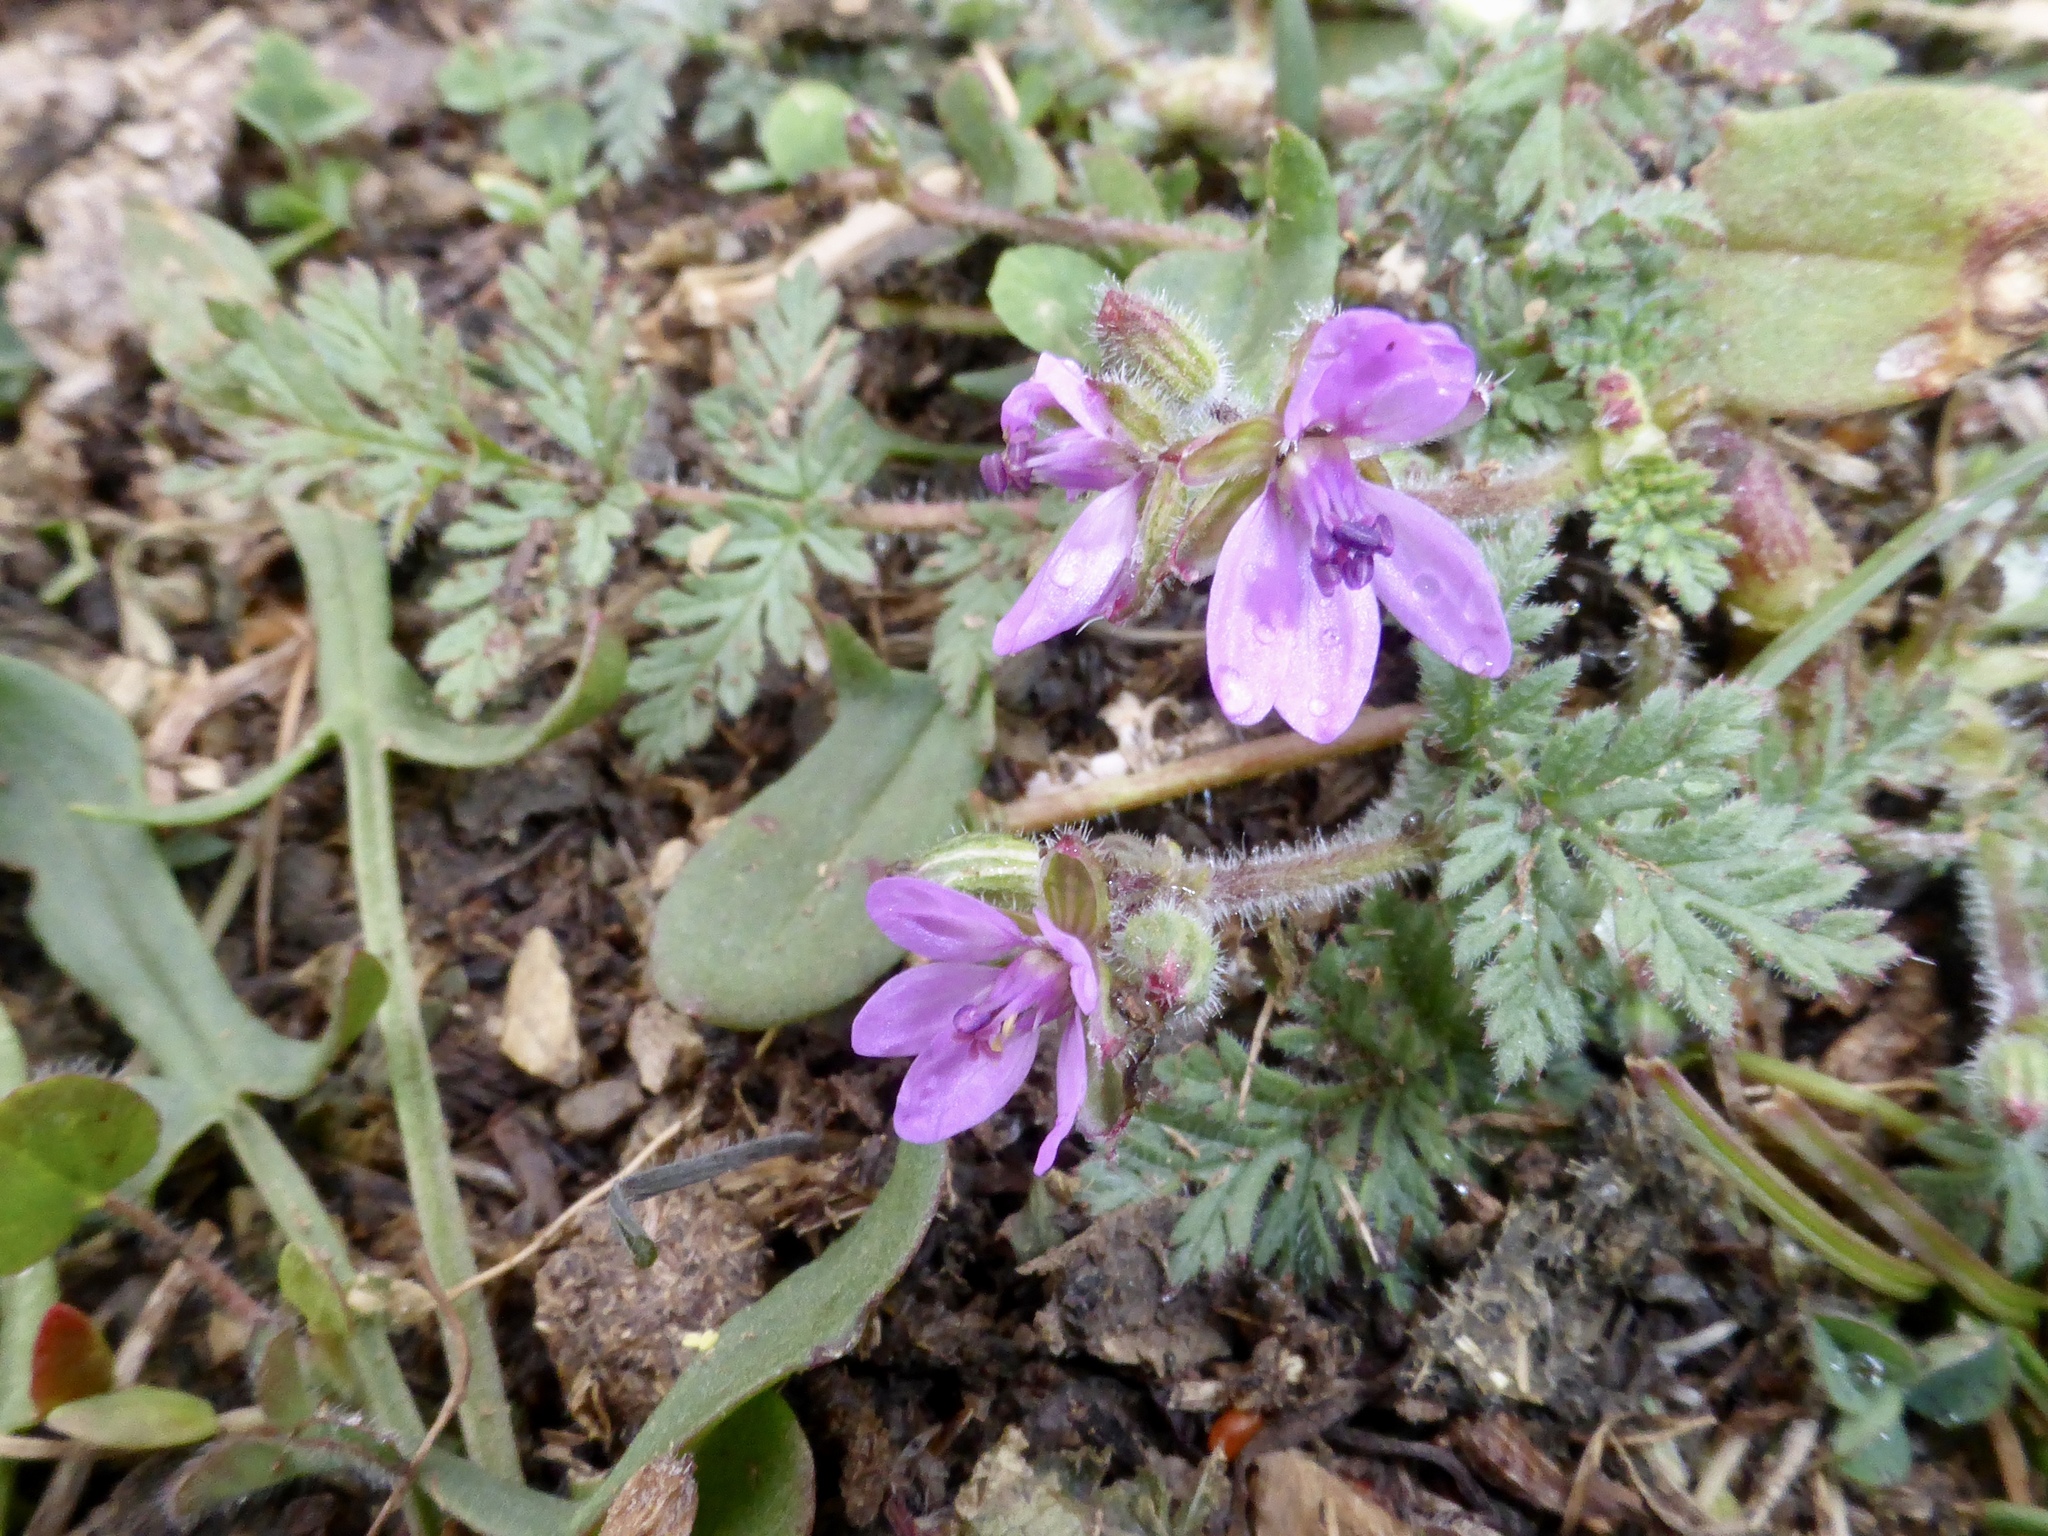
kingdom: Plantae
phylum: Tracheophyta
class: Magnoliopsida
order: Geraniales
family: Geraniaceae
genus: Erodium
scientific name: Erodium cicutarium
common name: Common stork's-bill
